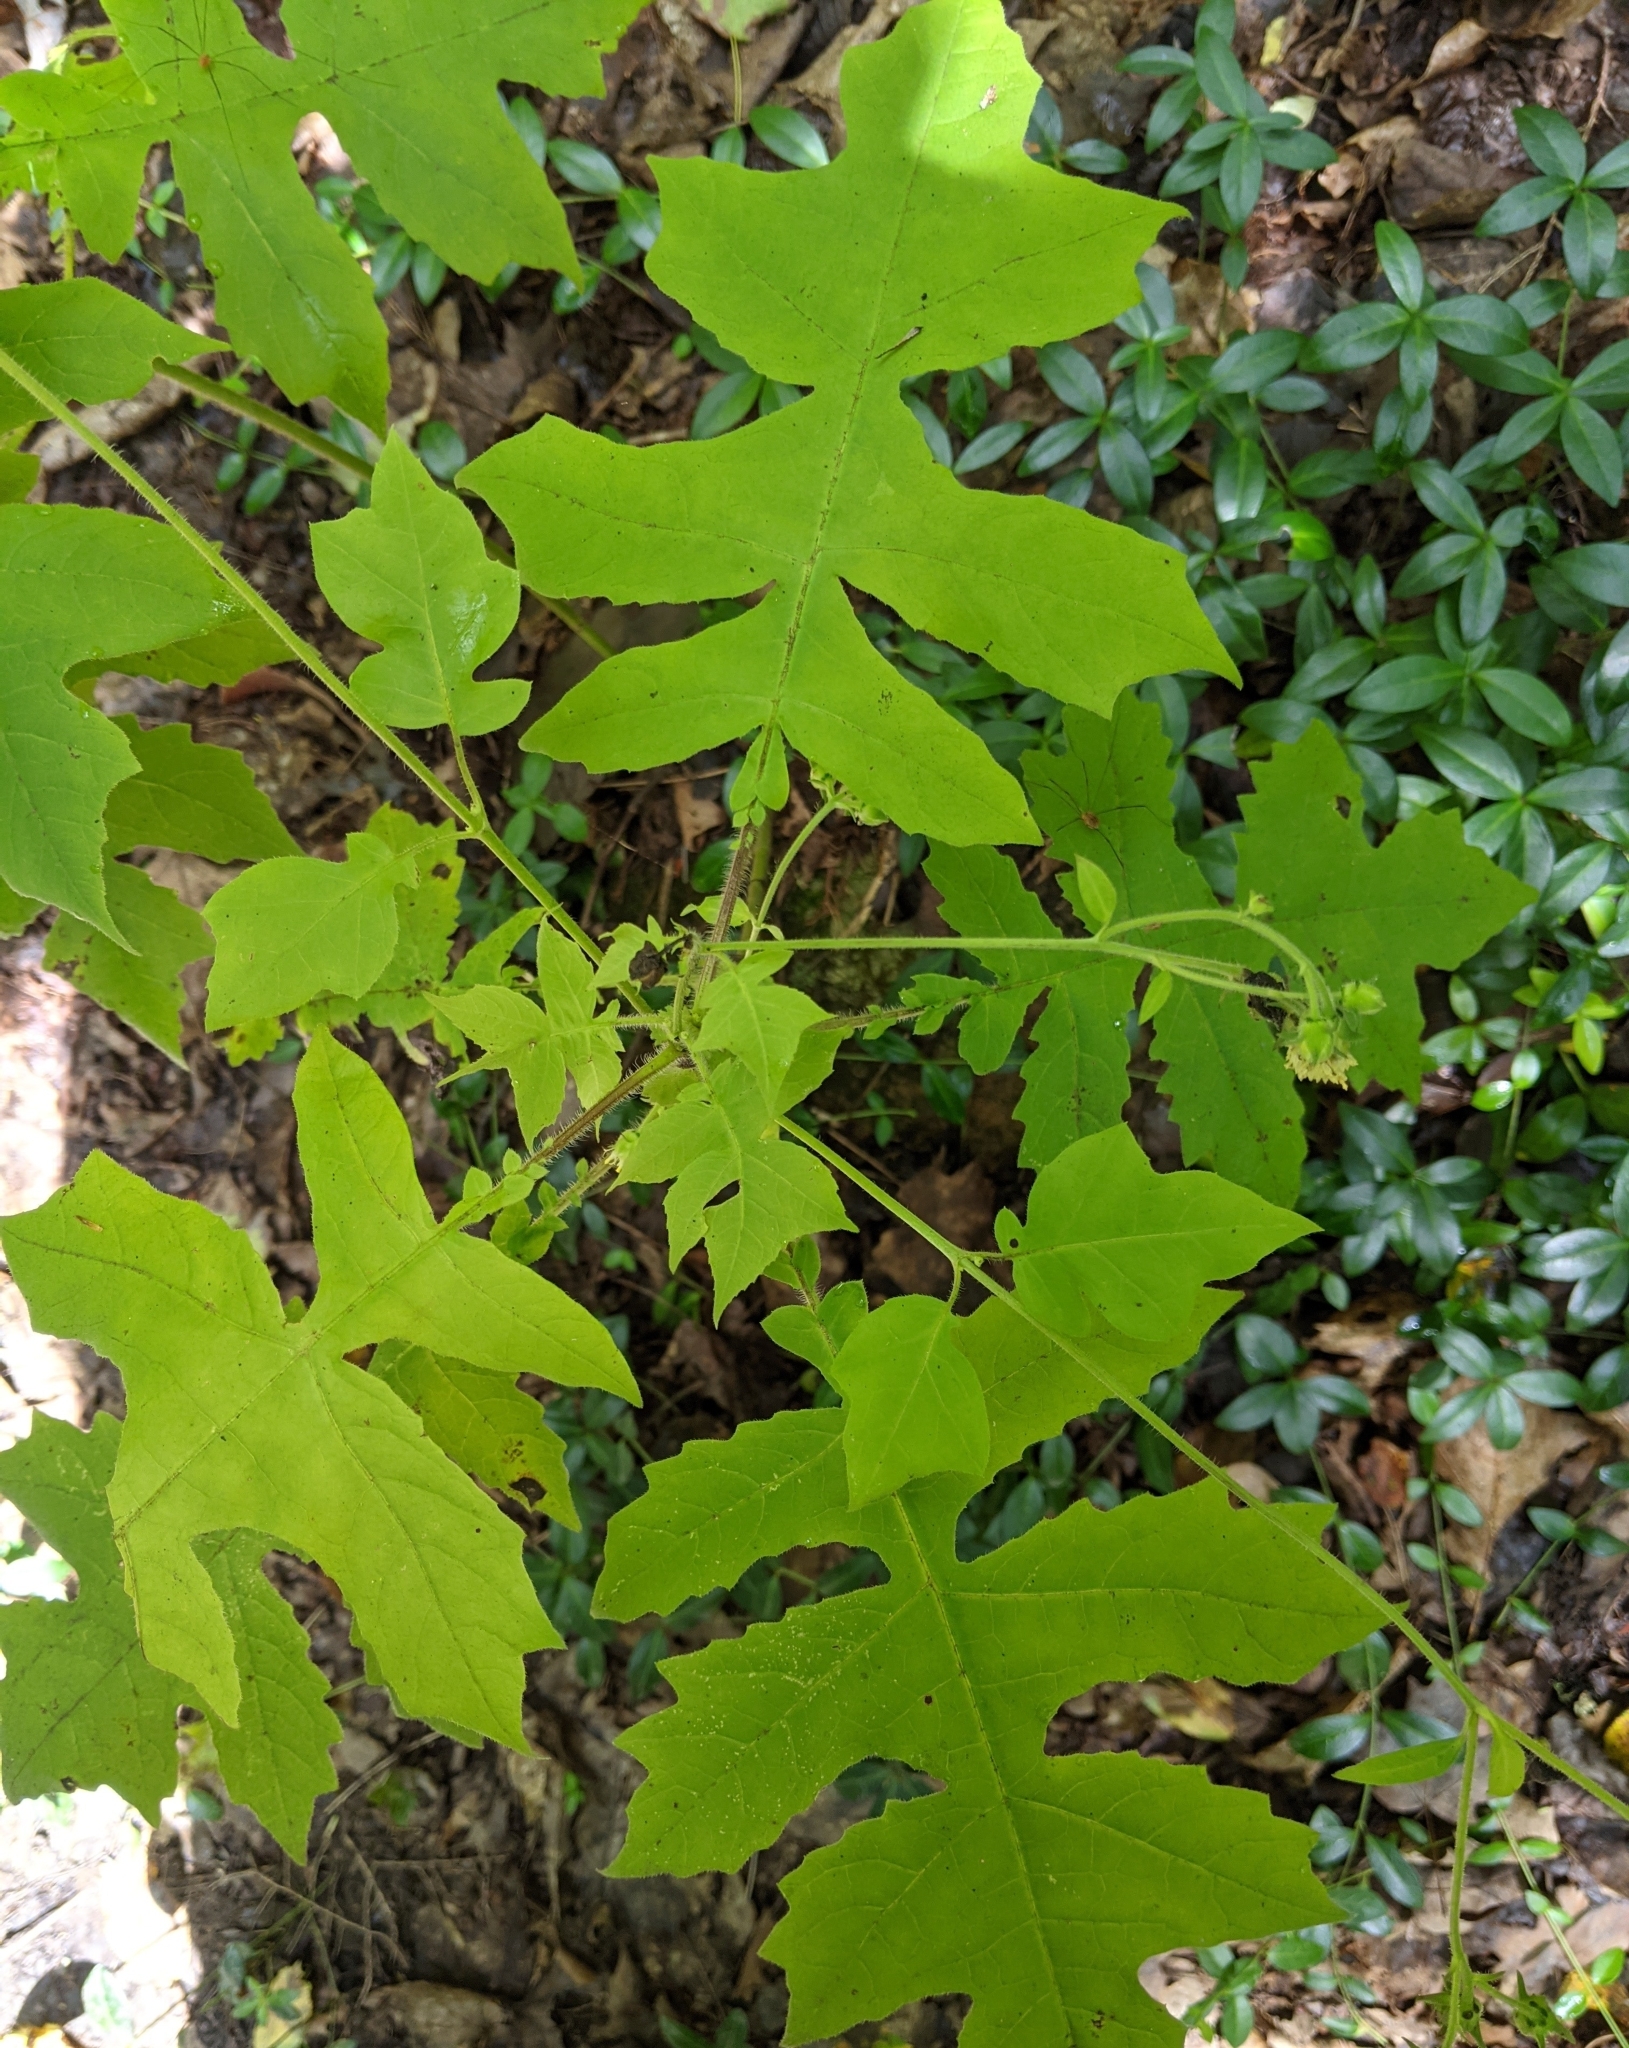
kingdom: Plantae
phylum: Tracheophyta
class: Magnoliopsida
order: Asterales
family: Asteraceae
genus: Polymnia
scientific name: Polymnia canadensis
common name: Pale-flowered leafcup
